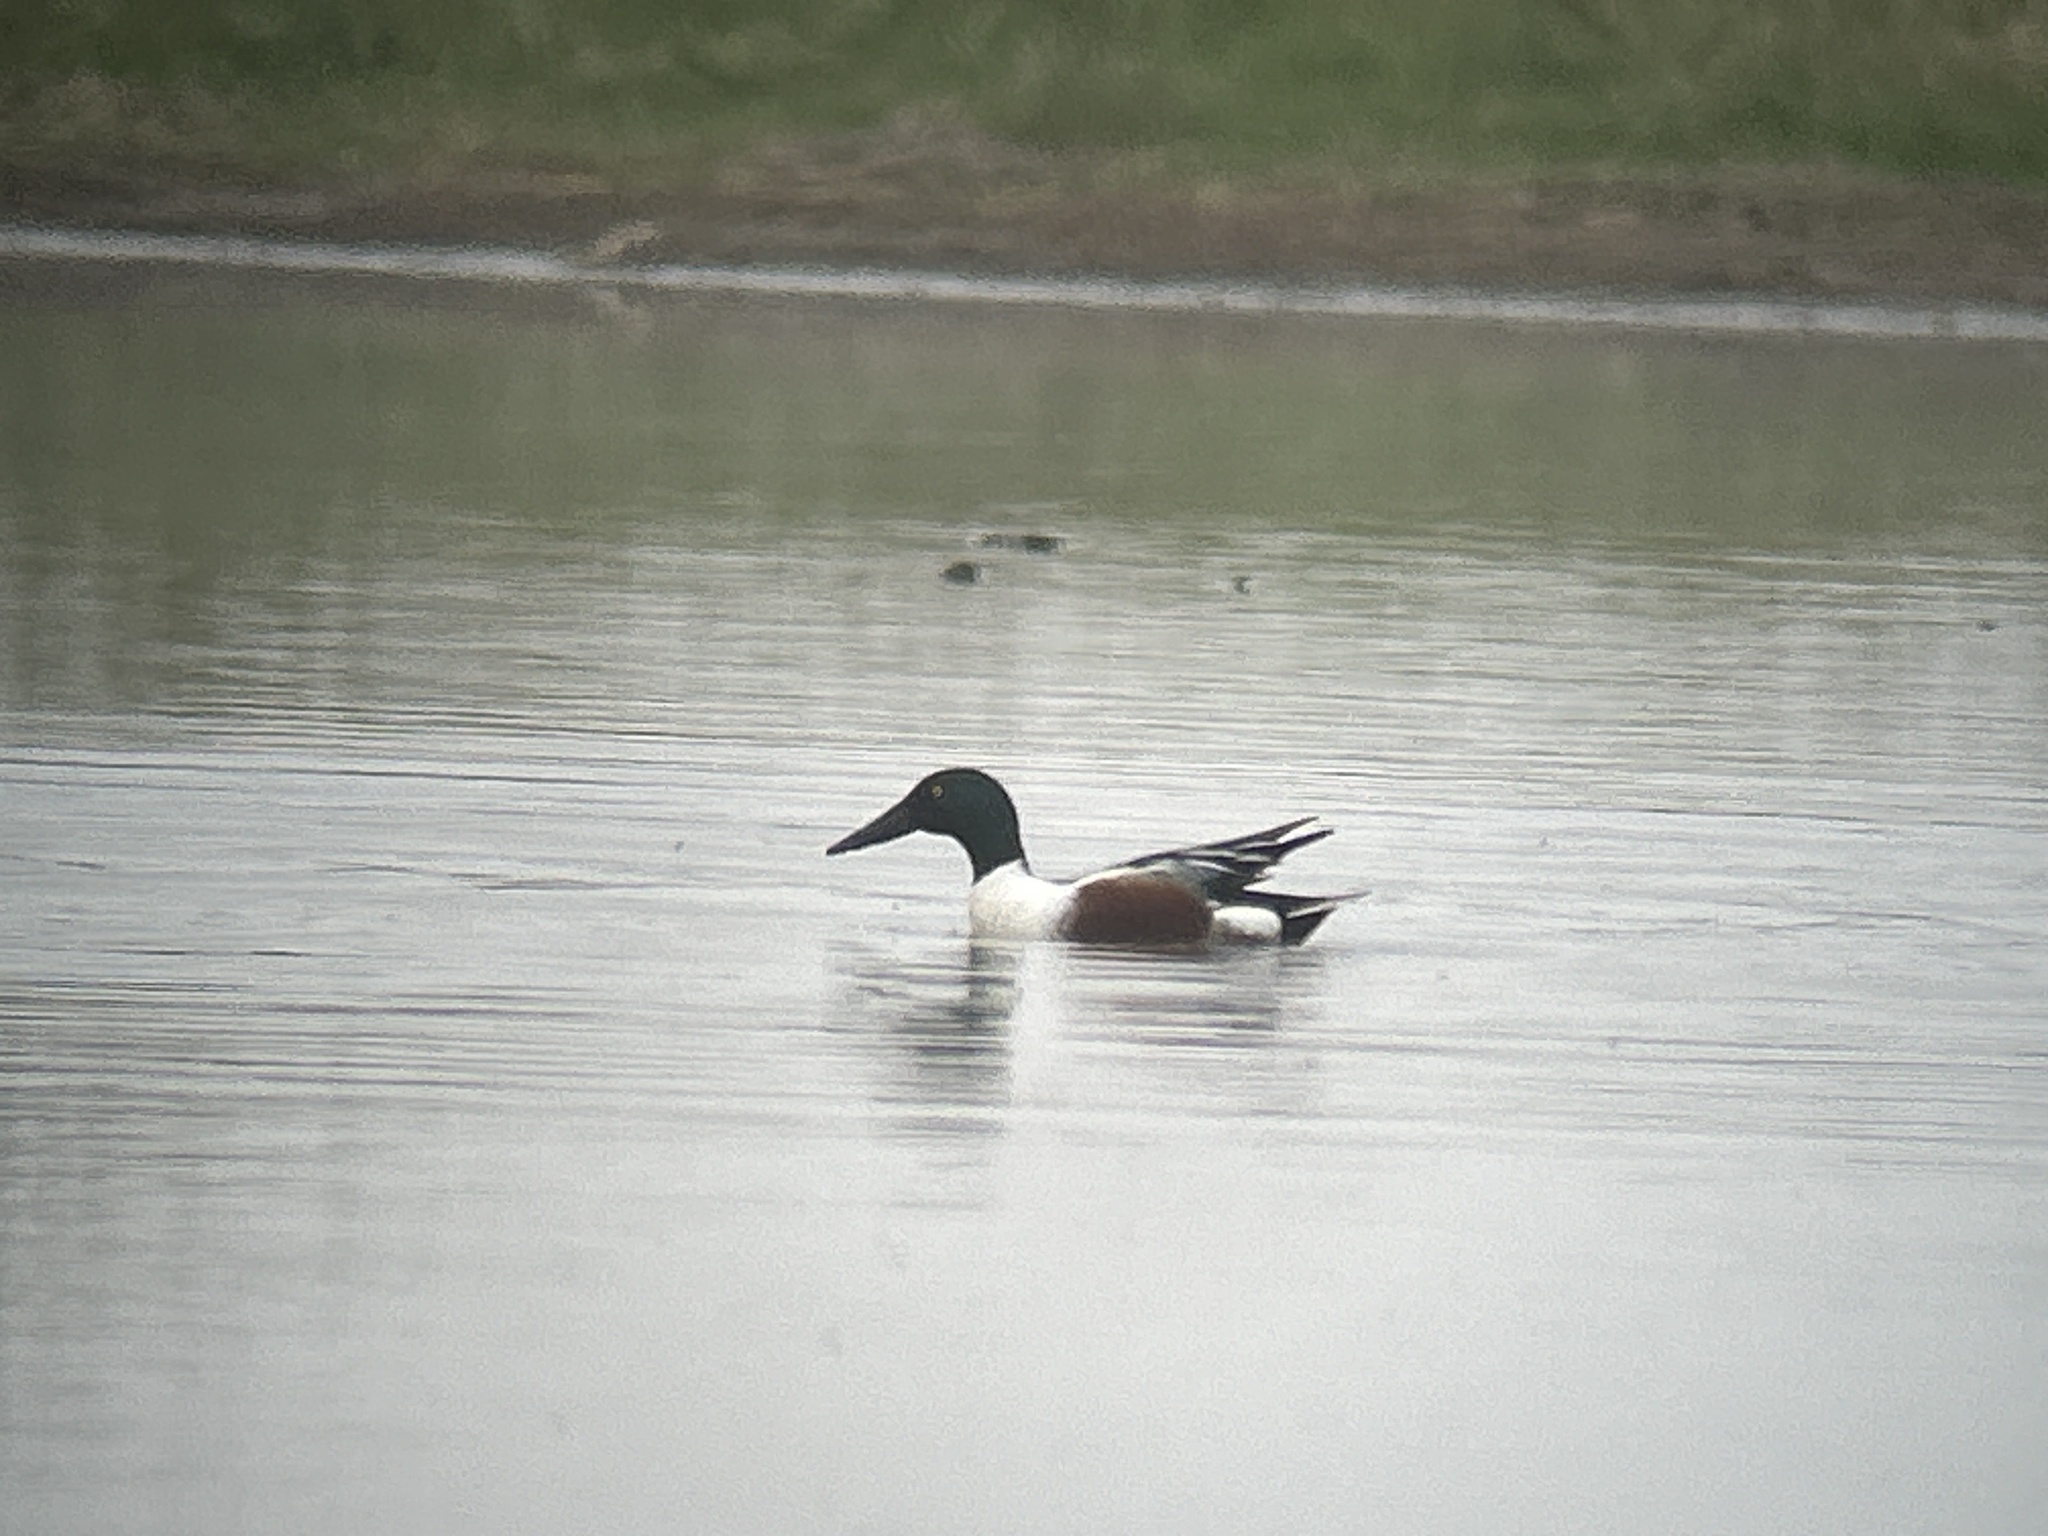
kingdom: Animalia
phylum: Chordata
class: Aves
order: Anseriformes
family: Anatidae
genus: Spatula
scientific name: Spatula clypeata
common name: Northern shoveler
